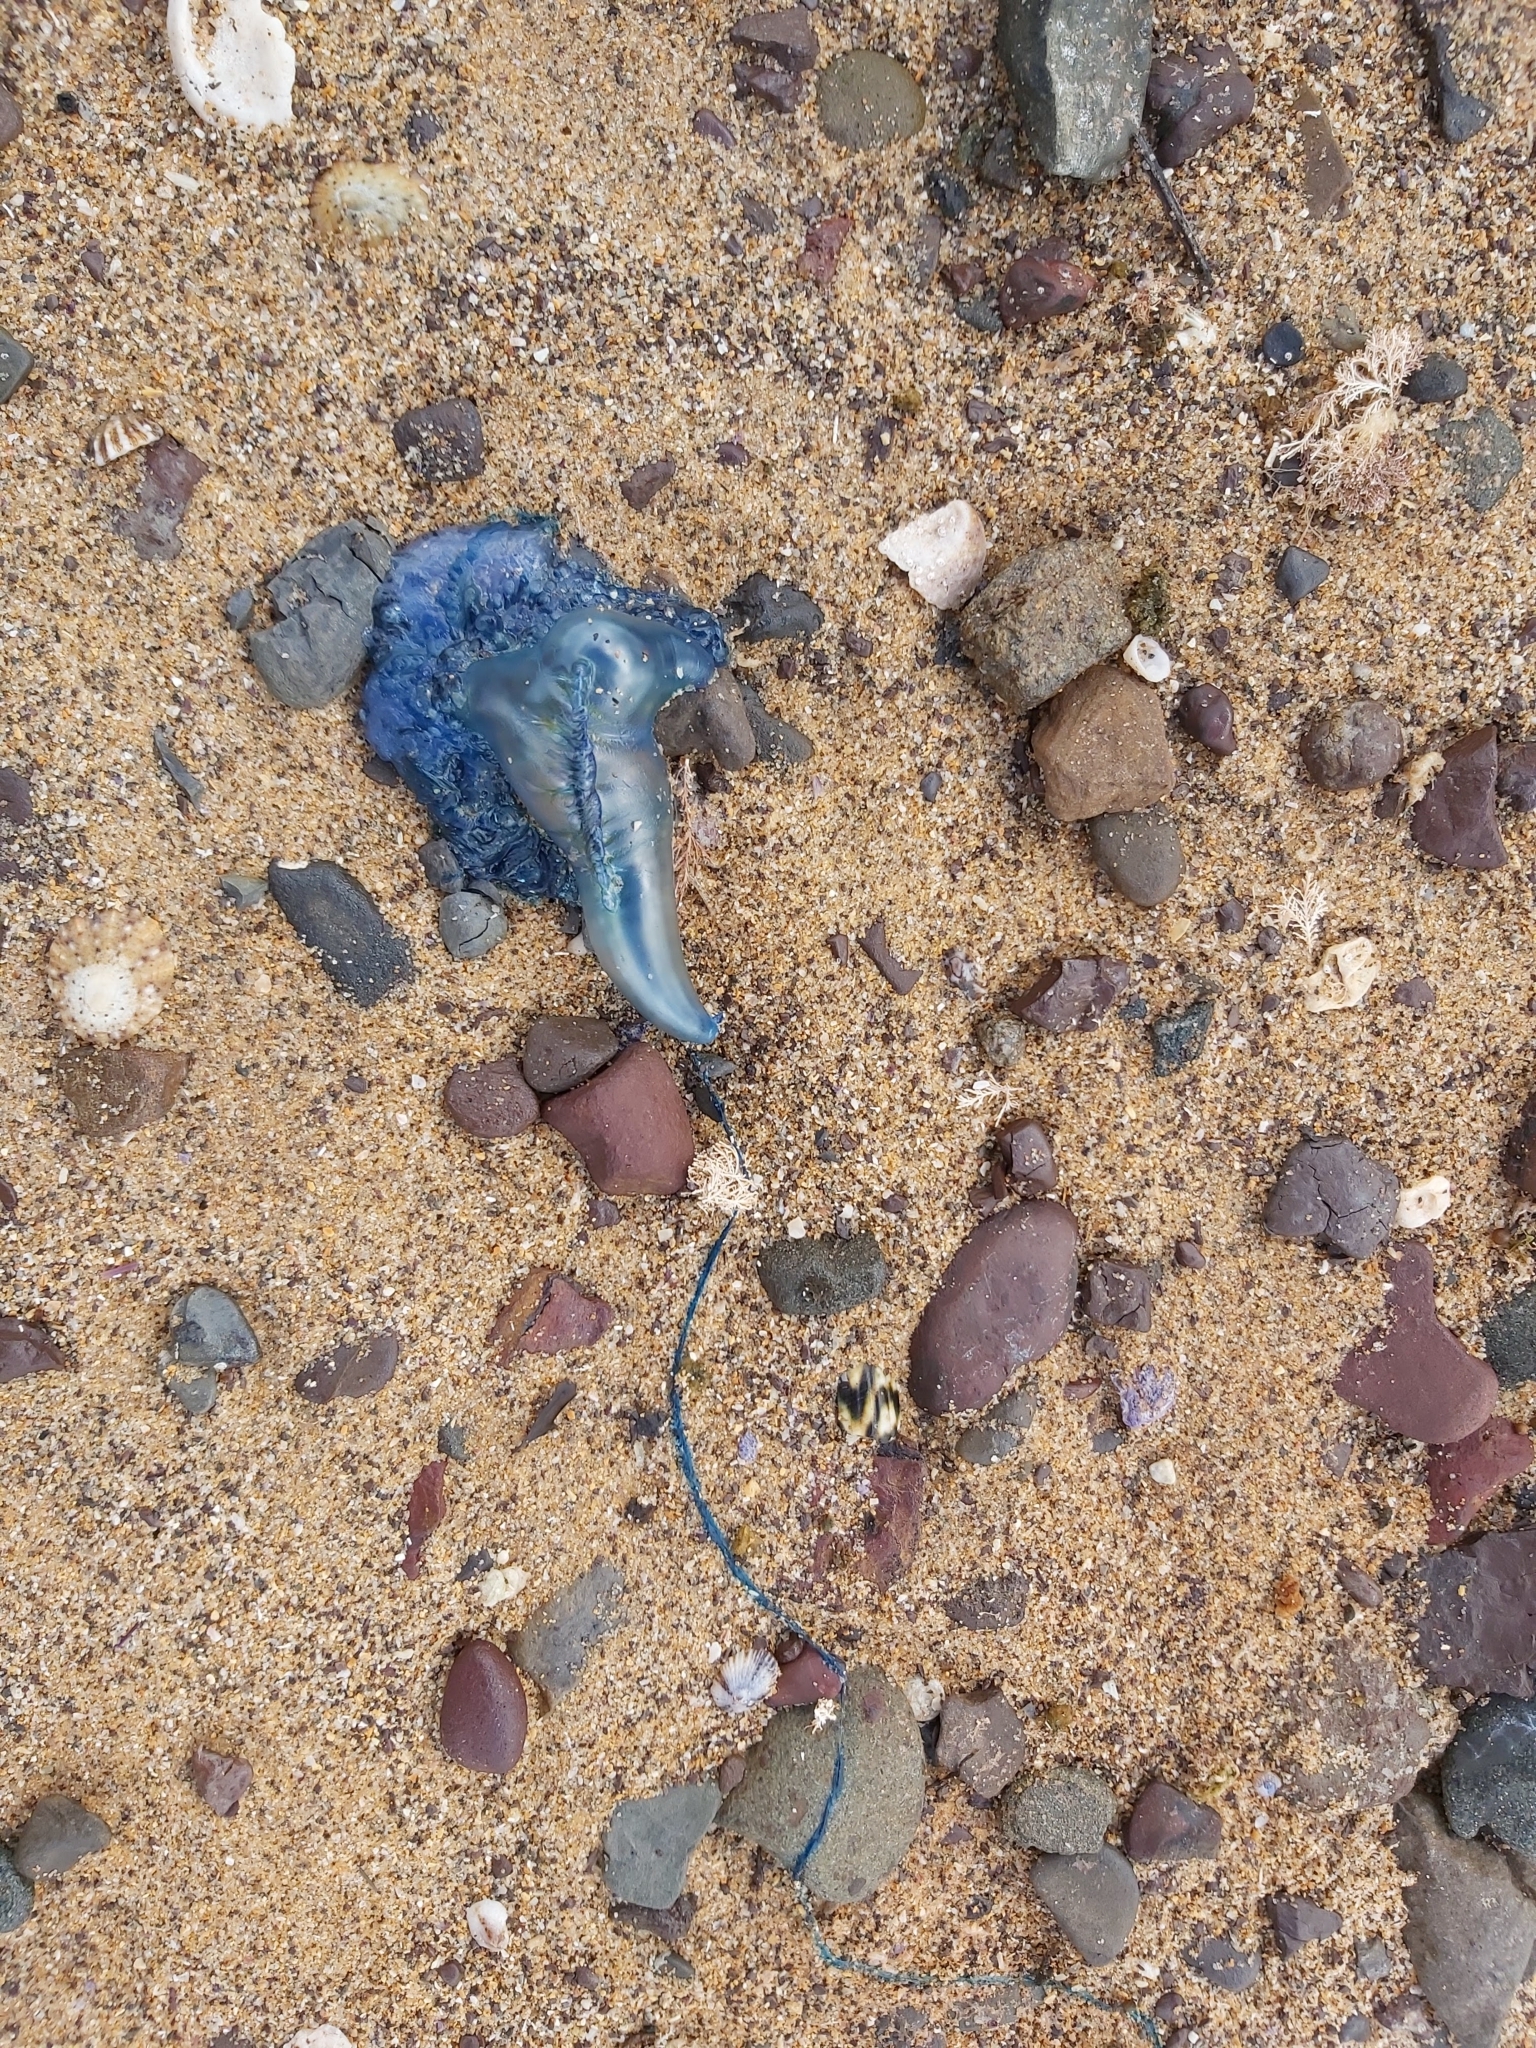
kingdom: Animalia
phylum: Cnidaria
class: Hydrozoa
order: Siphonophorae
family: Physaliidae
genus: Physalia
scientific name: Physalia physalis
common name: Portuguese man-of-war
